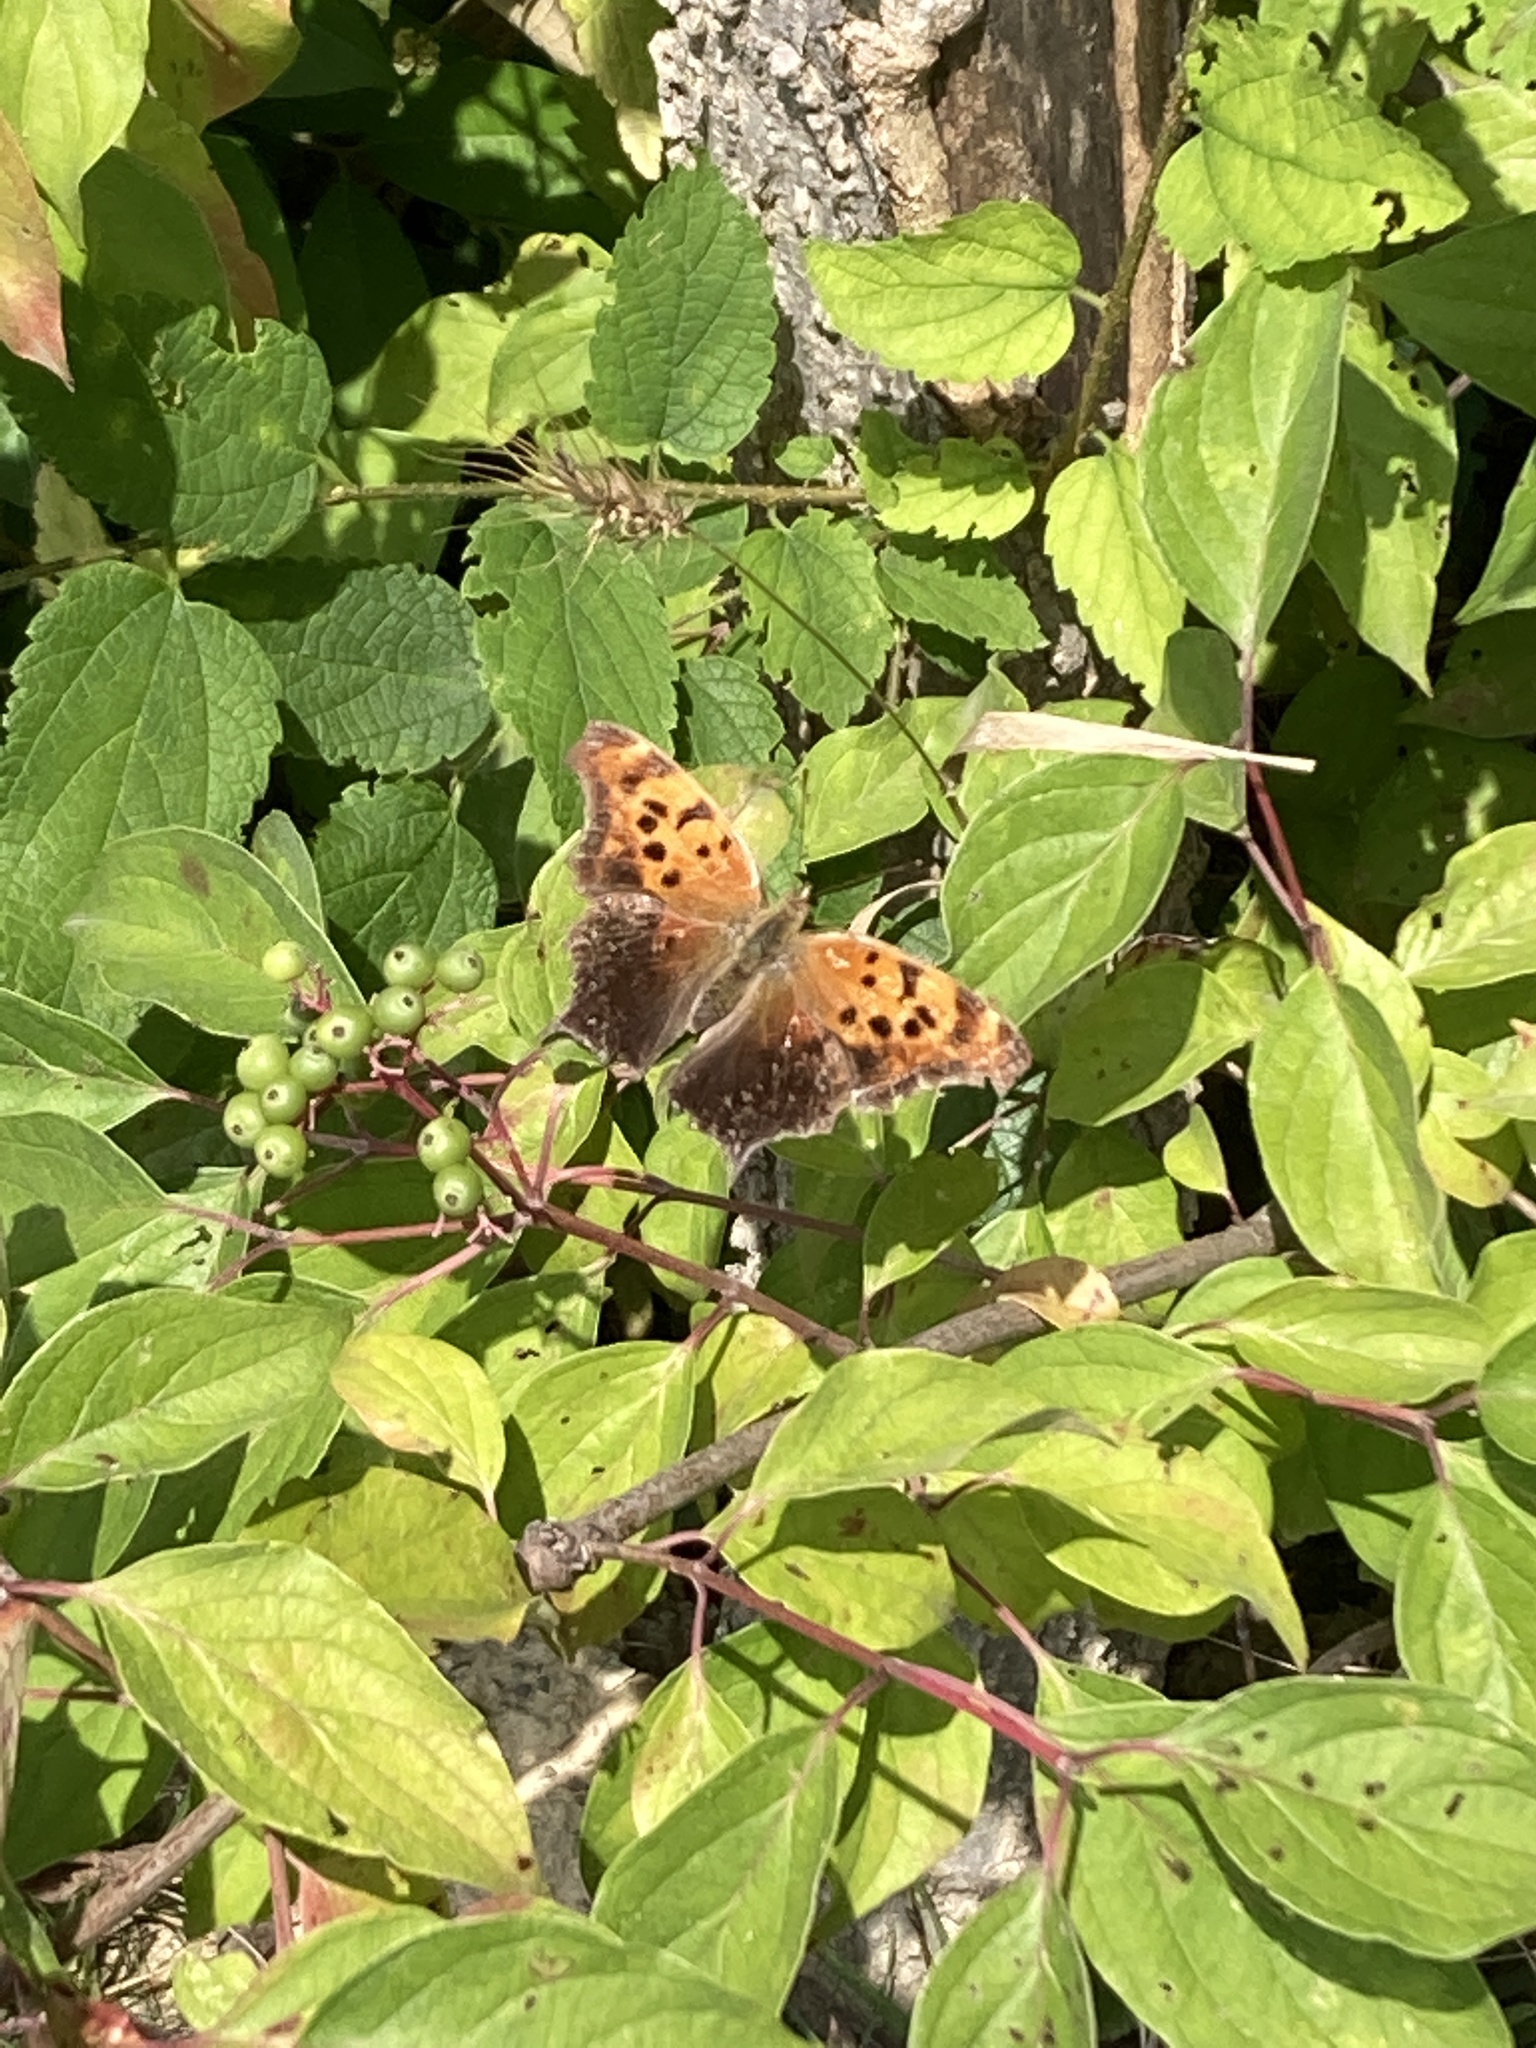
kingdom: Animalia
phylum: Arthropoda
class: Insecta
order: Lepidoptera
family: Nymphalidae
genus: Polygonia
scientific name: Polygonia interrogationis
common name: Question mark
